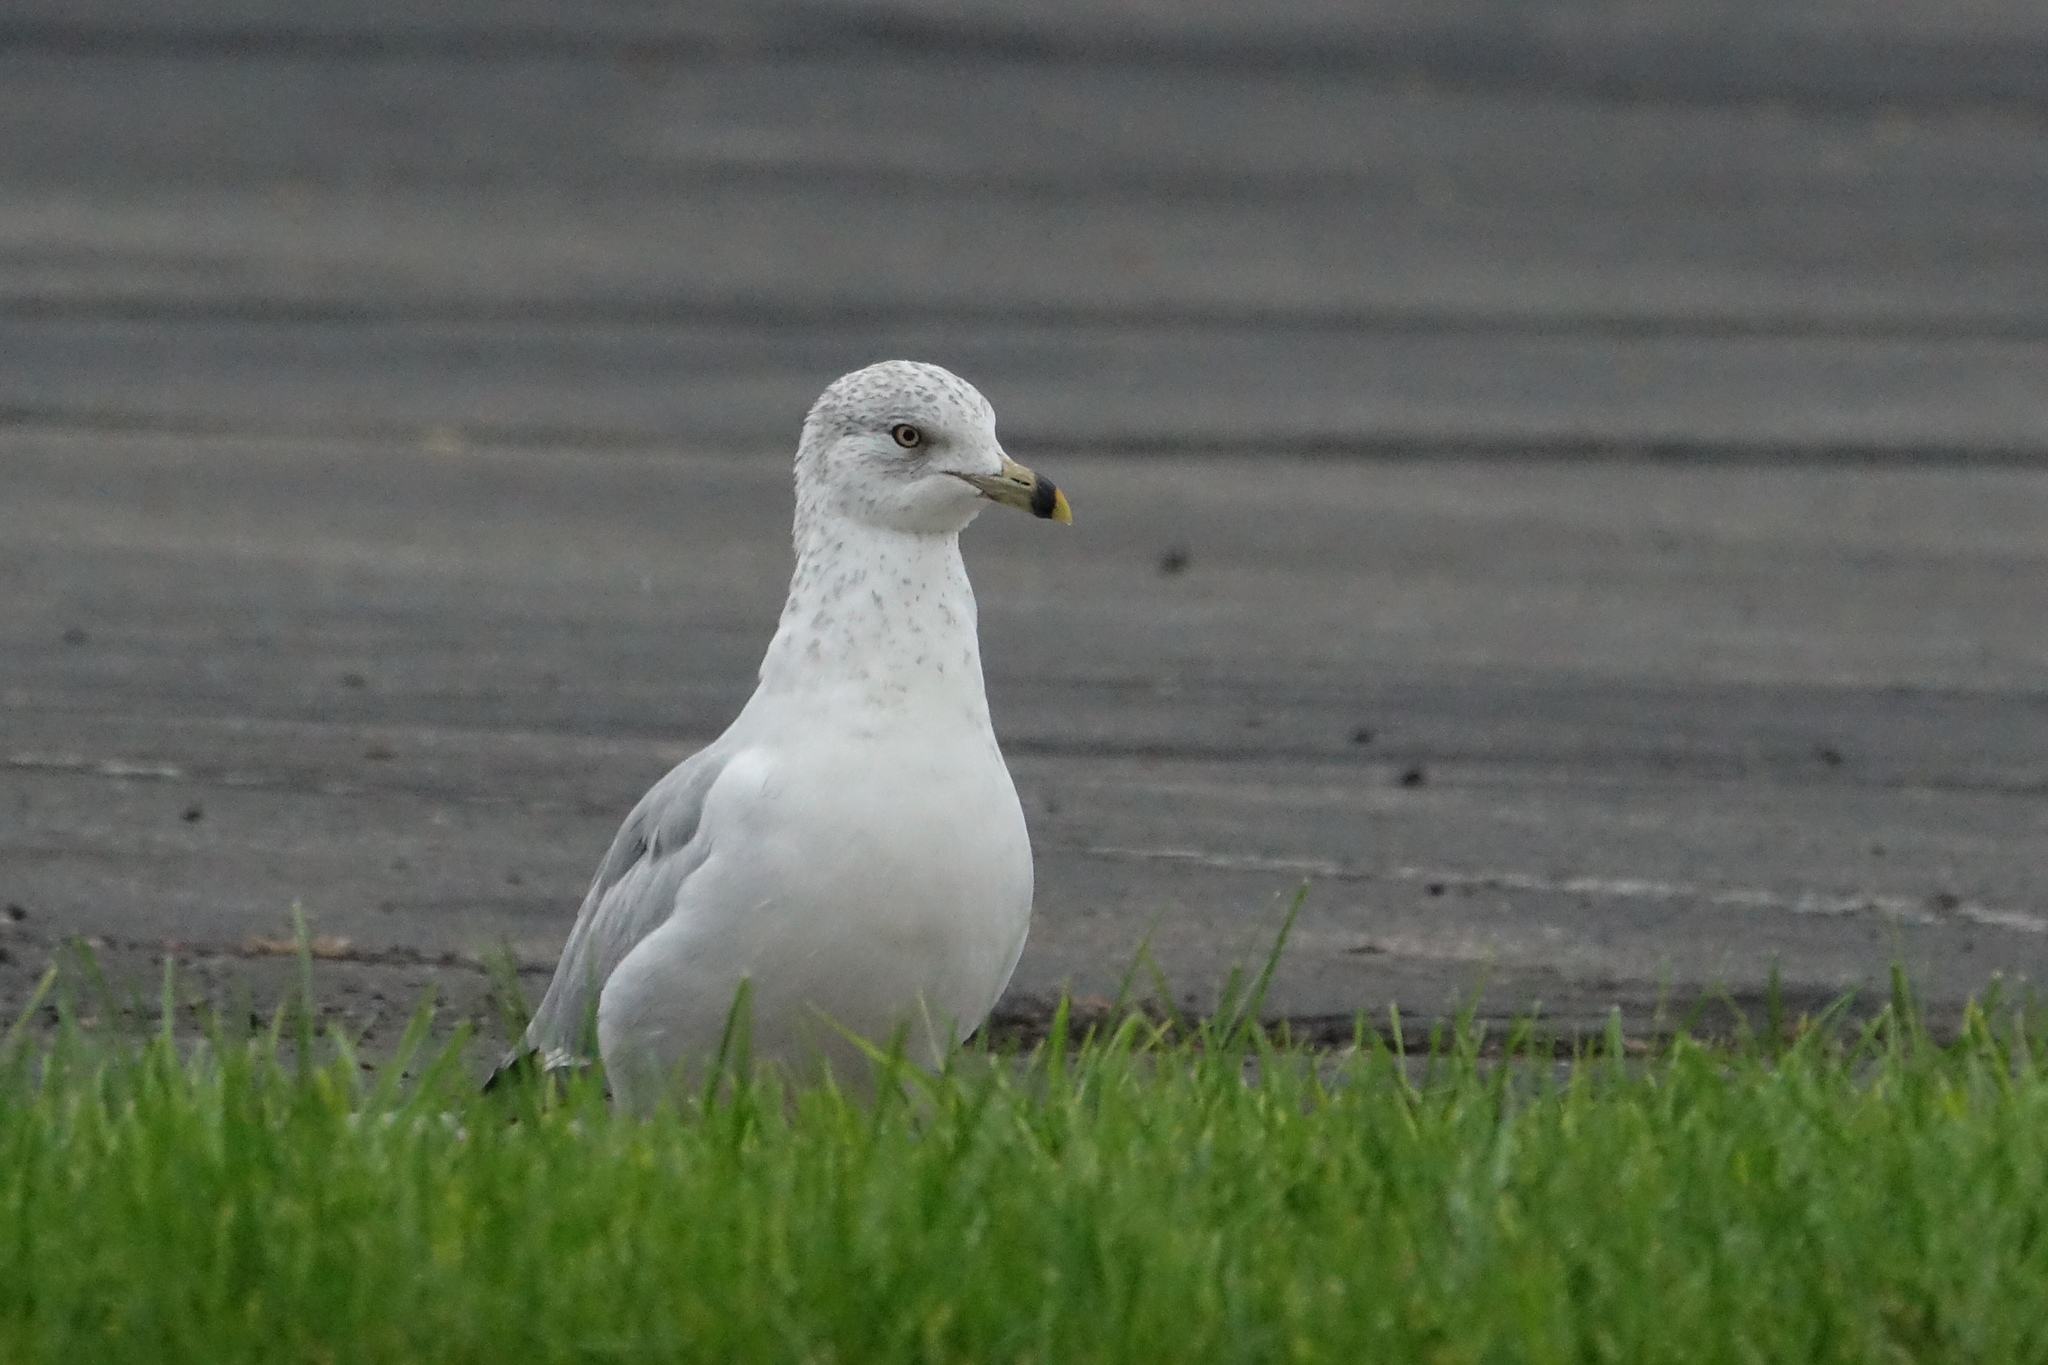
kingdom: Animalia
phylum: Chordata
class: Aves
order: Charadriiformes
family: Laridae
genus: Larus
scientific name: Larus delawarensis
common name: Ring-billed gull
